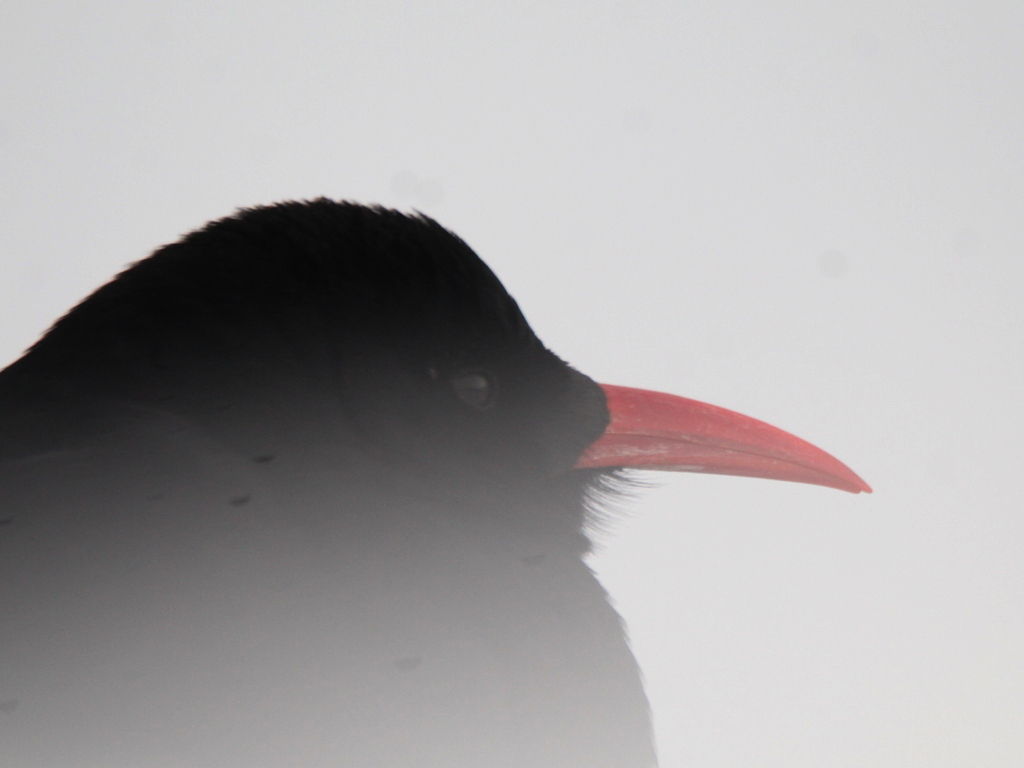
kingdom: Animalia
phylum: Chordata
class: Aves
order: Passeriformes
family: Corvidae
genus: Pyrrhocorax
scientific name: Pyrrhocorax pyrrhocorax
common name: Red-billed chough
